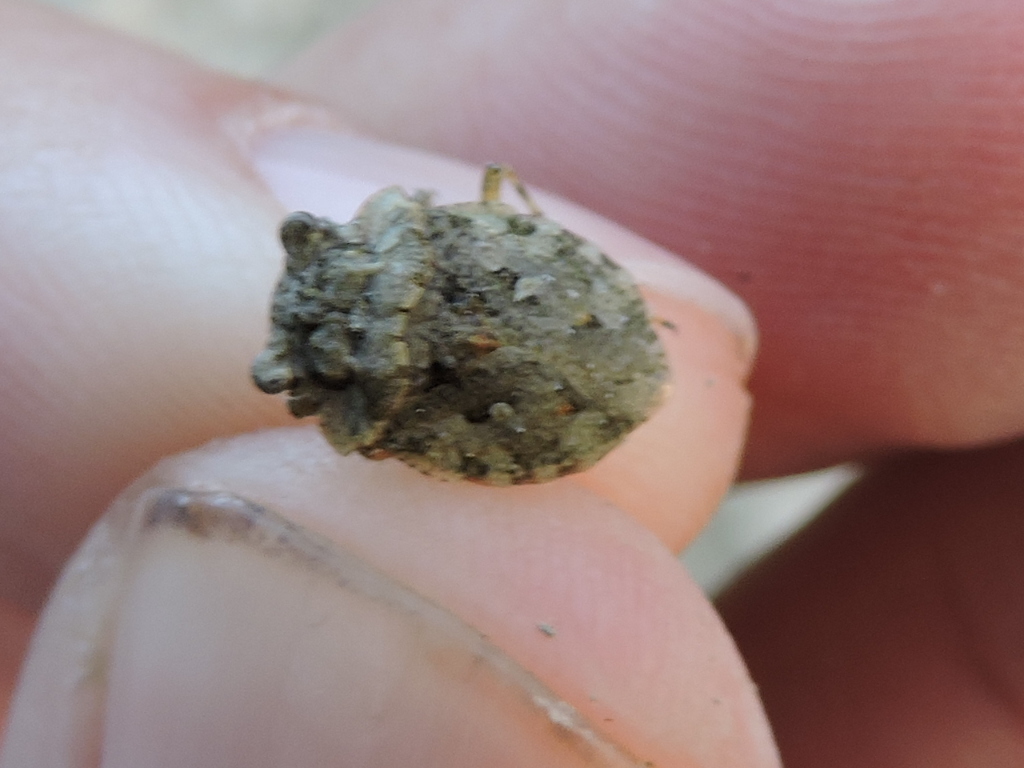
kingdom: Animalia
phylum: Arthropoda
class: Insecta
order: Hemiptera
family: Gelastocoridae
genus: Gelastocoris
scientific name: Gelastocoris oculatus
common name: Toad bug
